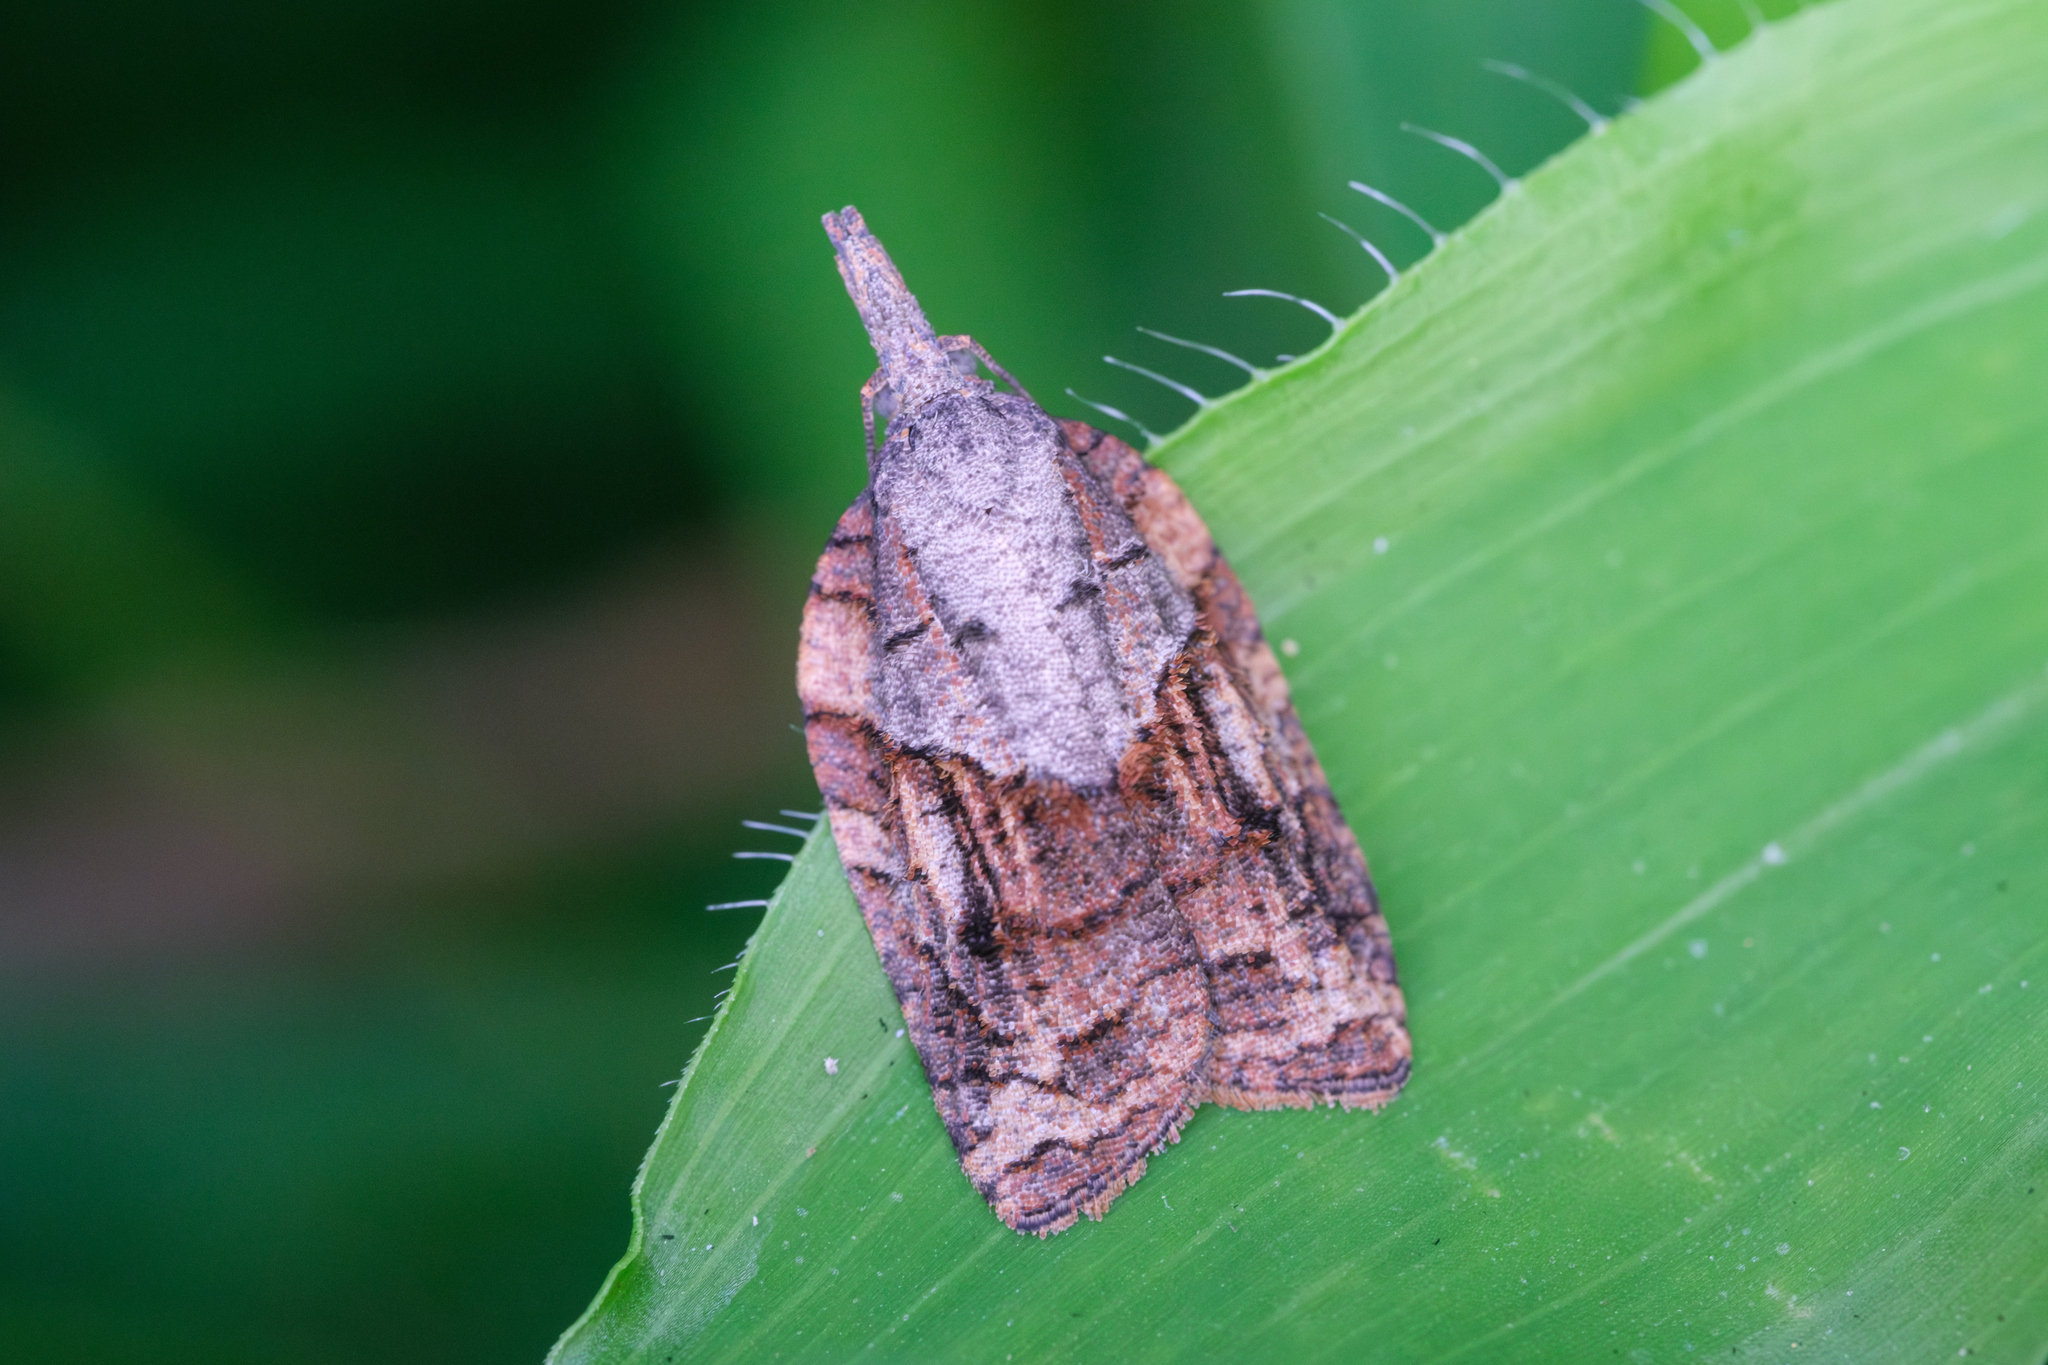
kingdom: Animalia
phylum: Arthropoda
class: Insecta
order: Lepidoptera
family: Tortricidae
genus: Platynota
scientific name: Platynota idaeusalis
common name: Tufted apple bud moth
